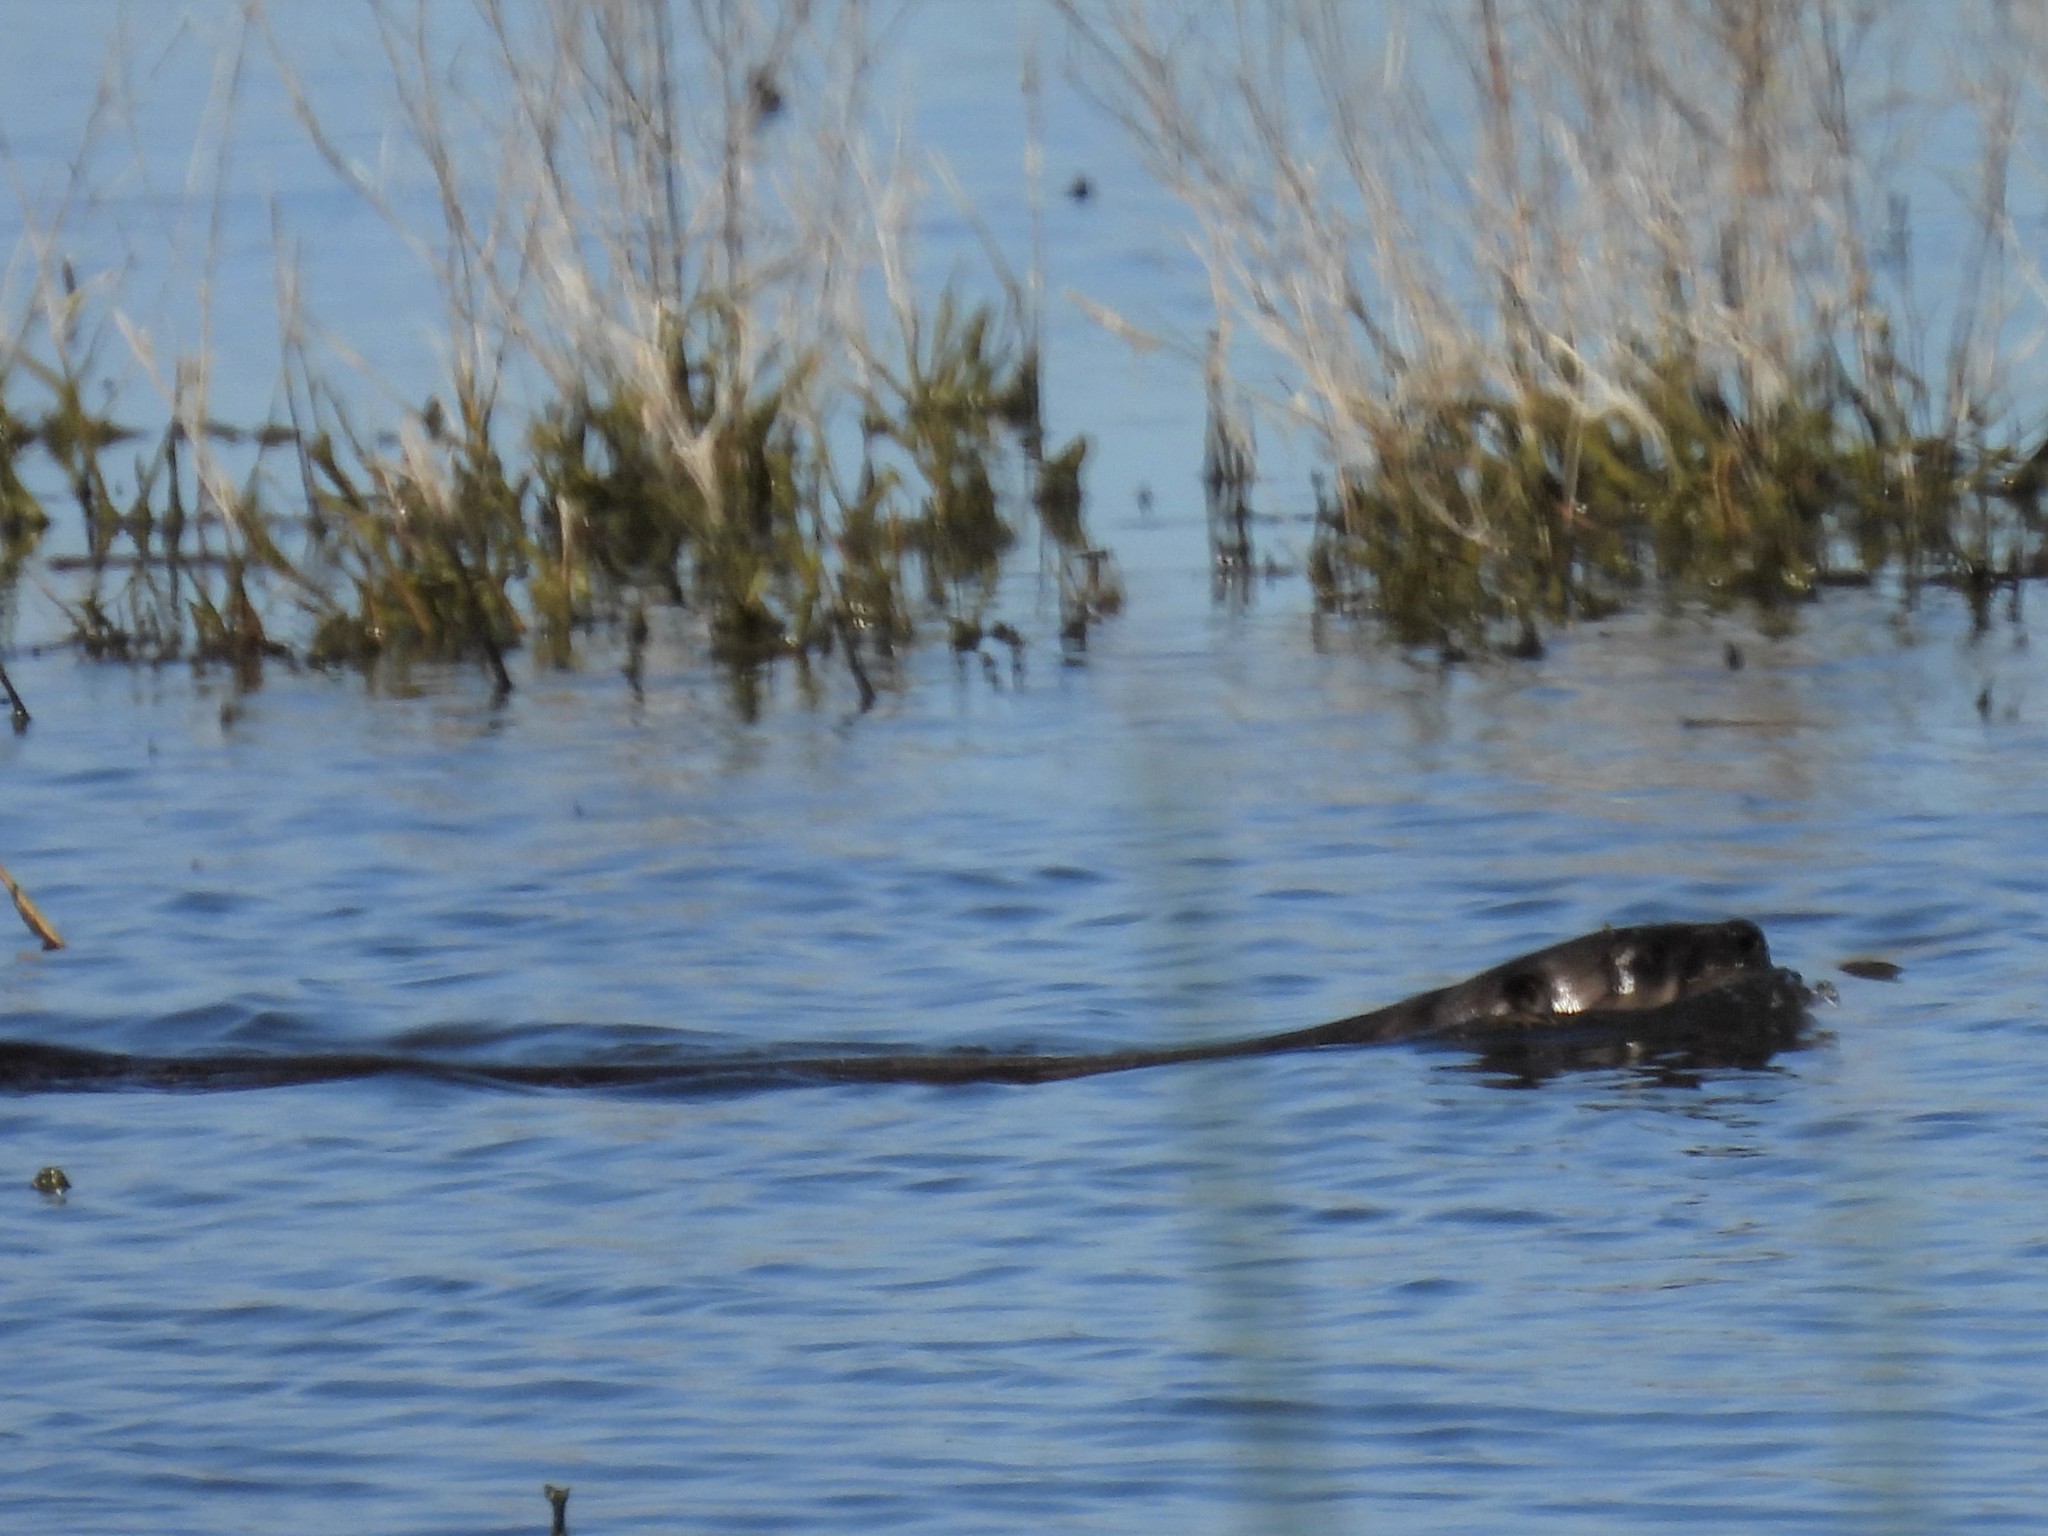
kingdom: Animalia
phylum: Chordata
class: Mammalia
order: Carnivora
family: Mustelidae
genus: Lontra
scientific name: Lontra canadensis
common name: North american river otter
